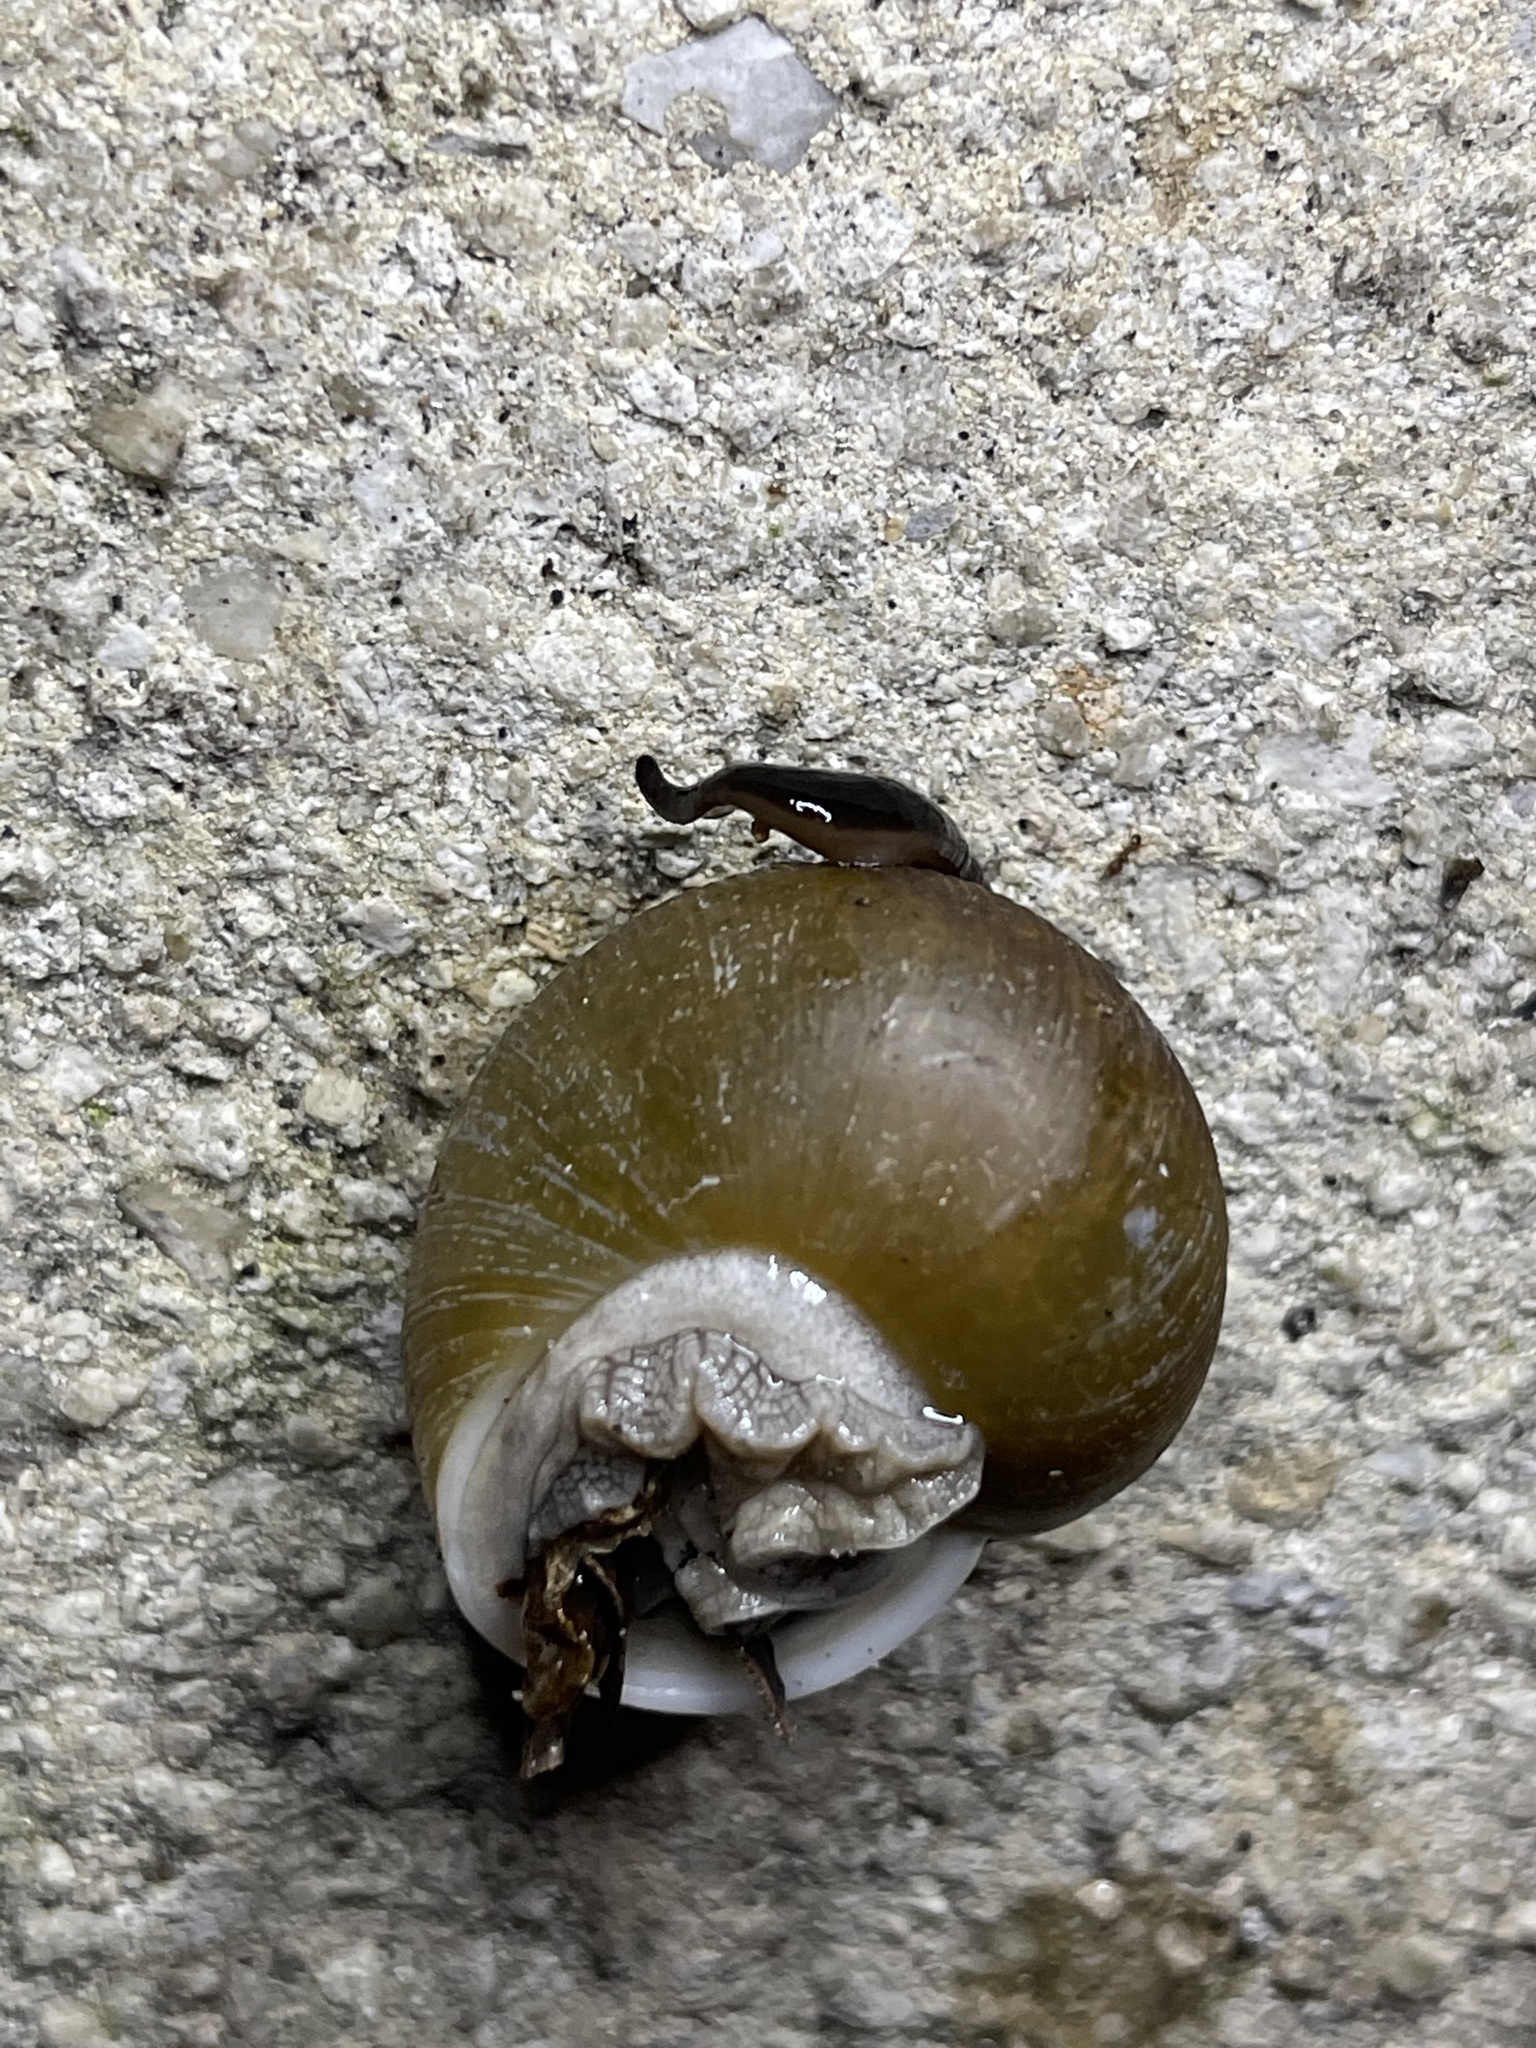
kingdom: Animalia
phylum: Mollusca
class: Gastropoda
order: Stylommatophora
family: Zachrysiidae
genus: Zachrysia
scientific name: Zachrysia provisoria
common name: Garden zachrysia
